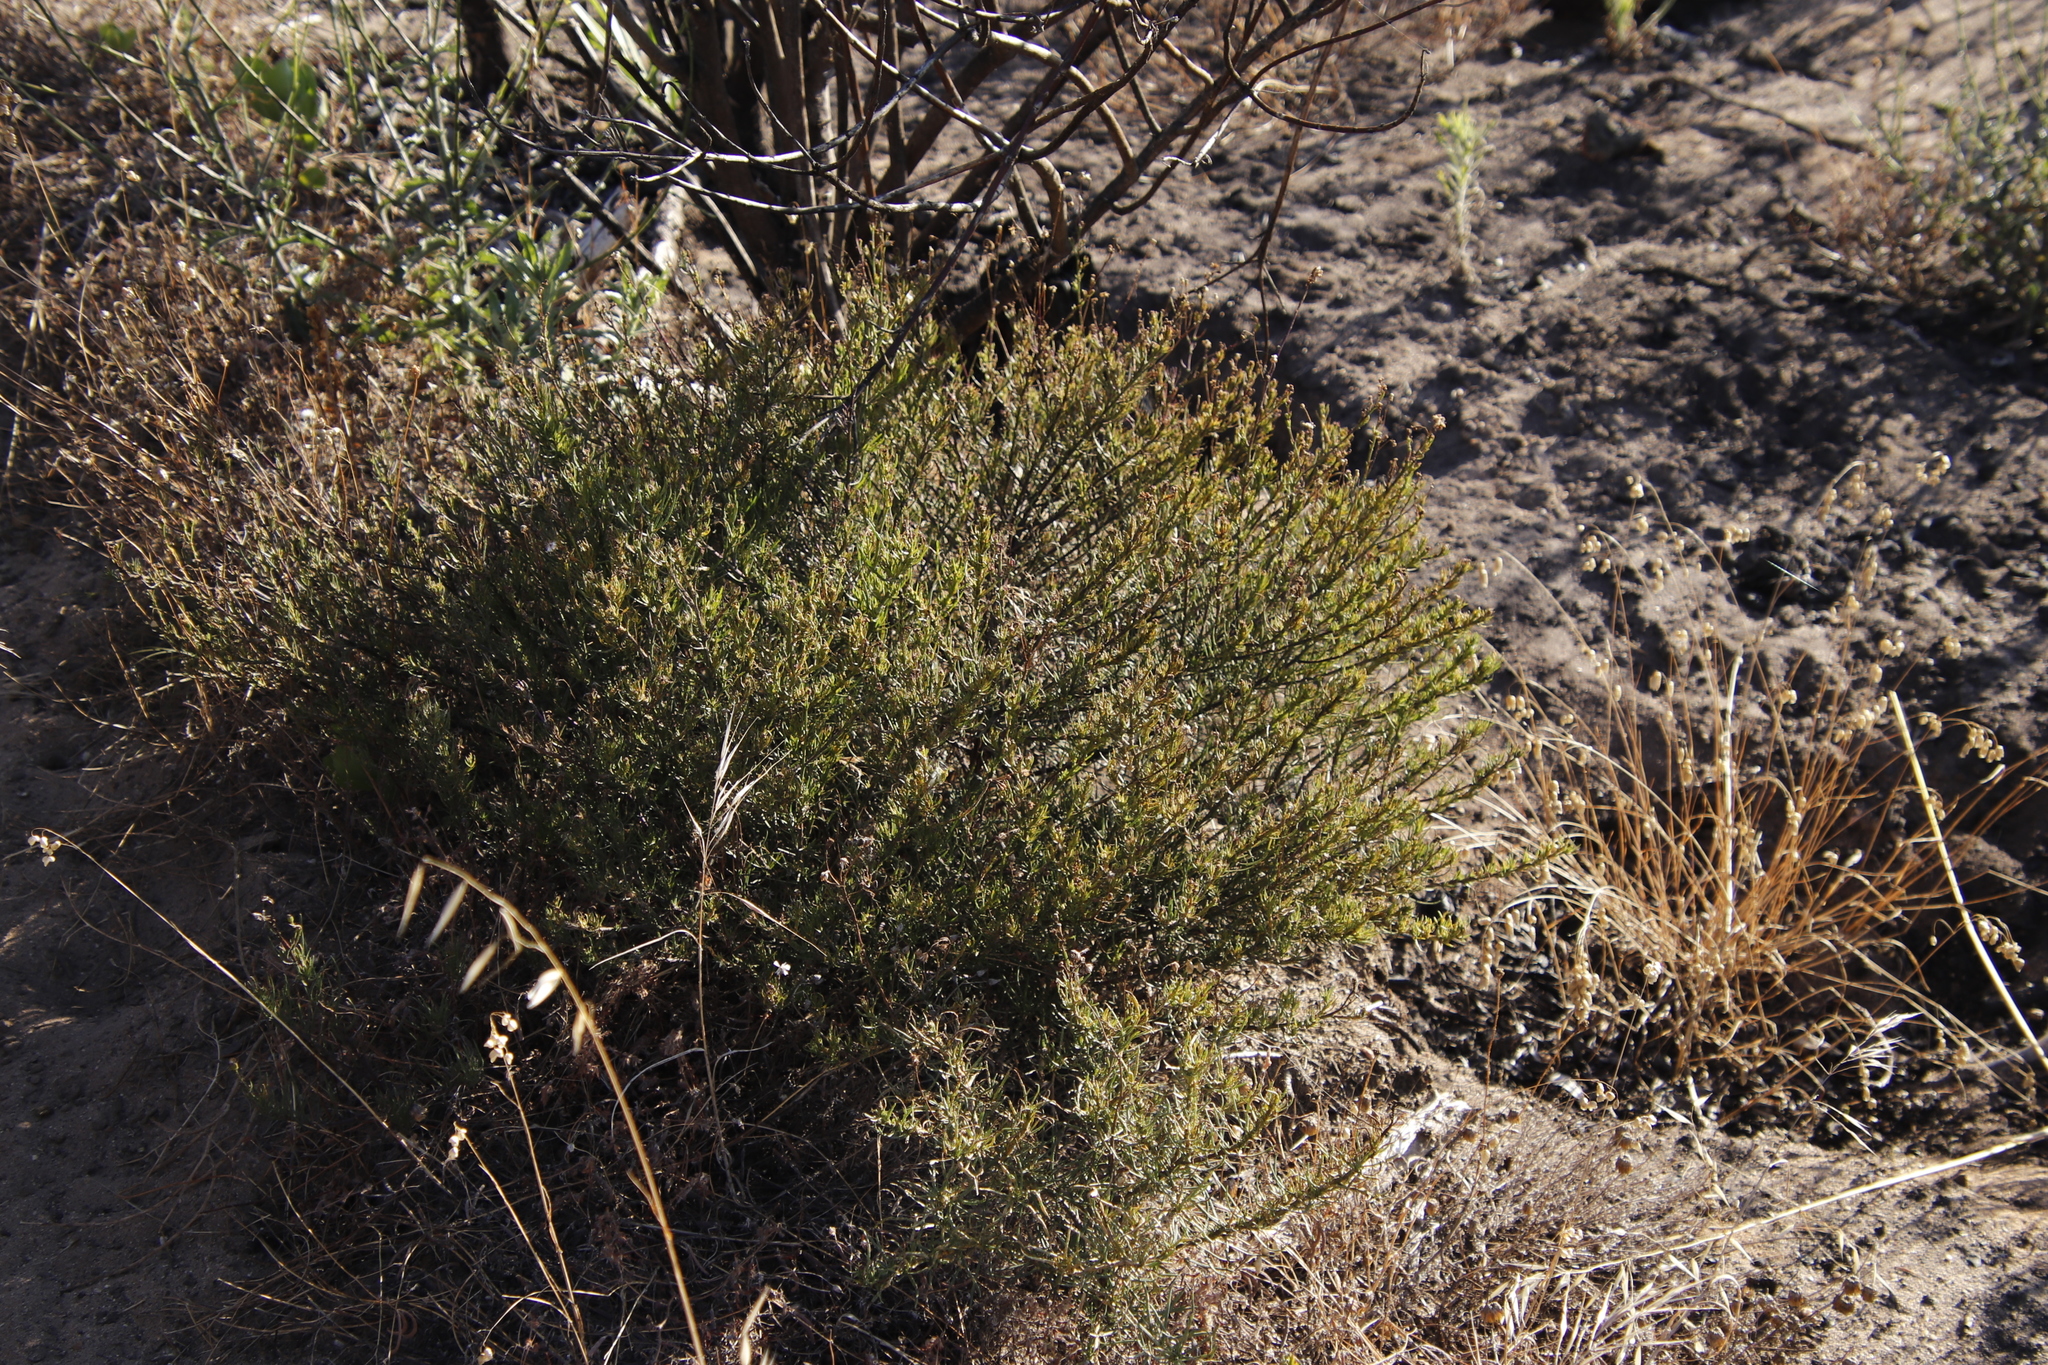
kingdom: Plantae
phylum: Tracheophyta
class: Magnoliopsida
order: Asterales
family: Asteraceae
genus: Senecio
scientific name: Senecio burchellii
